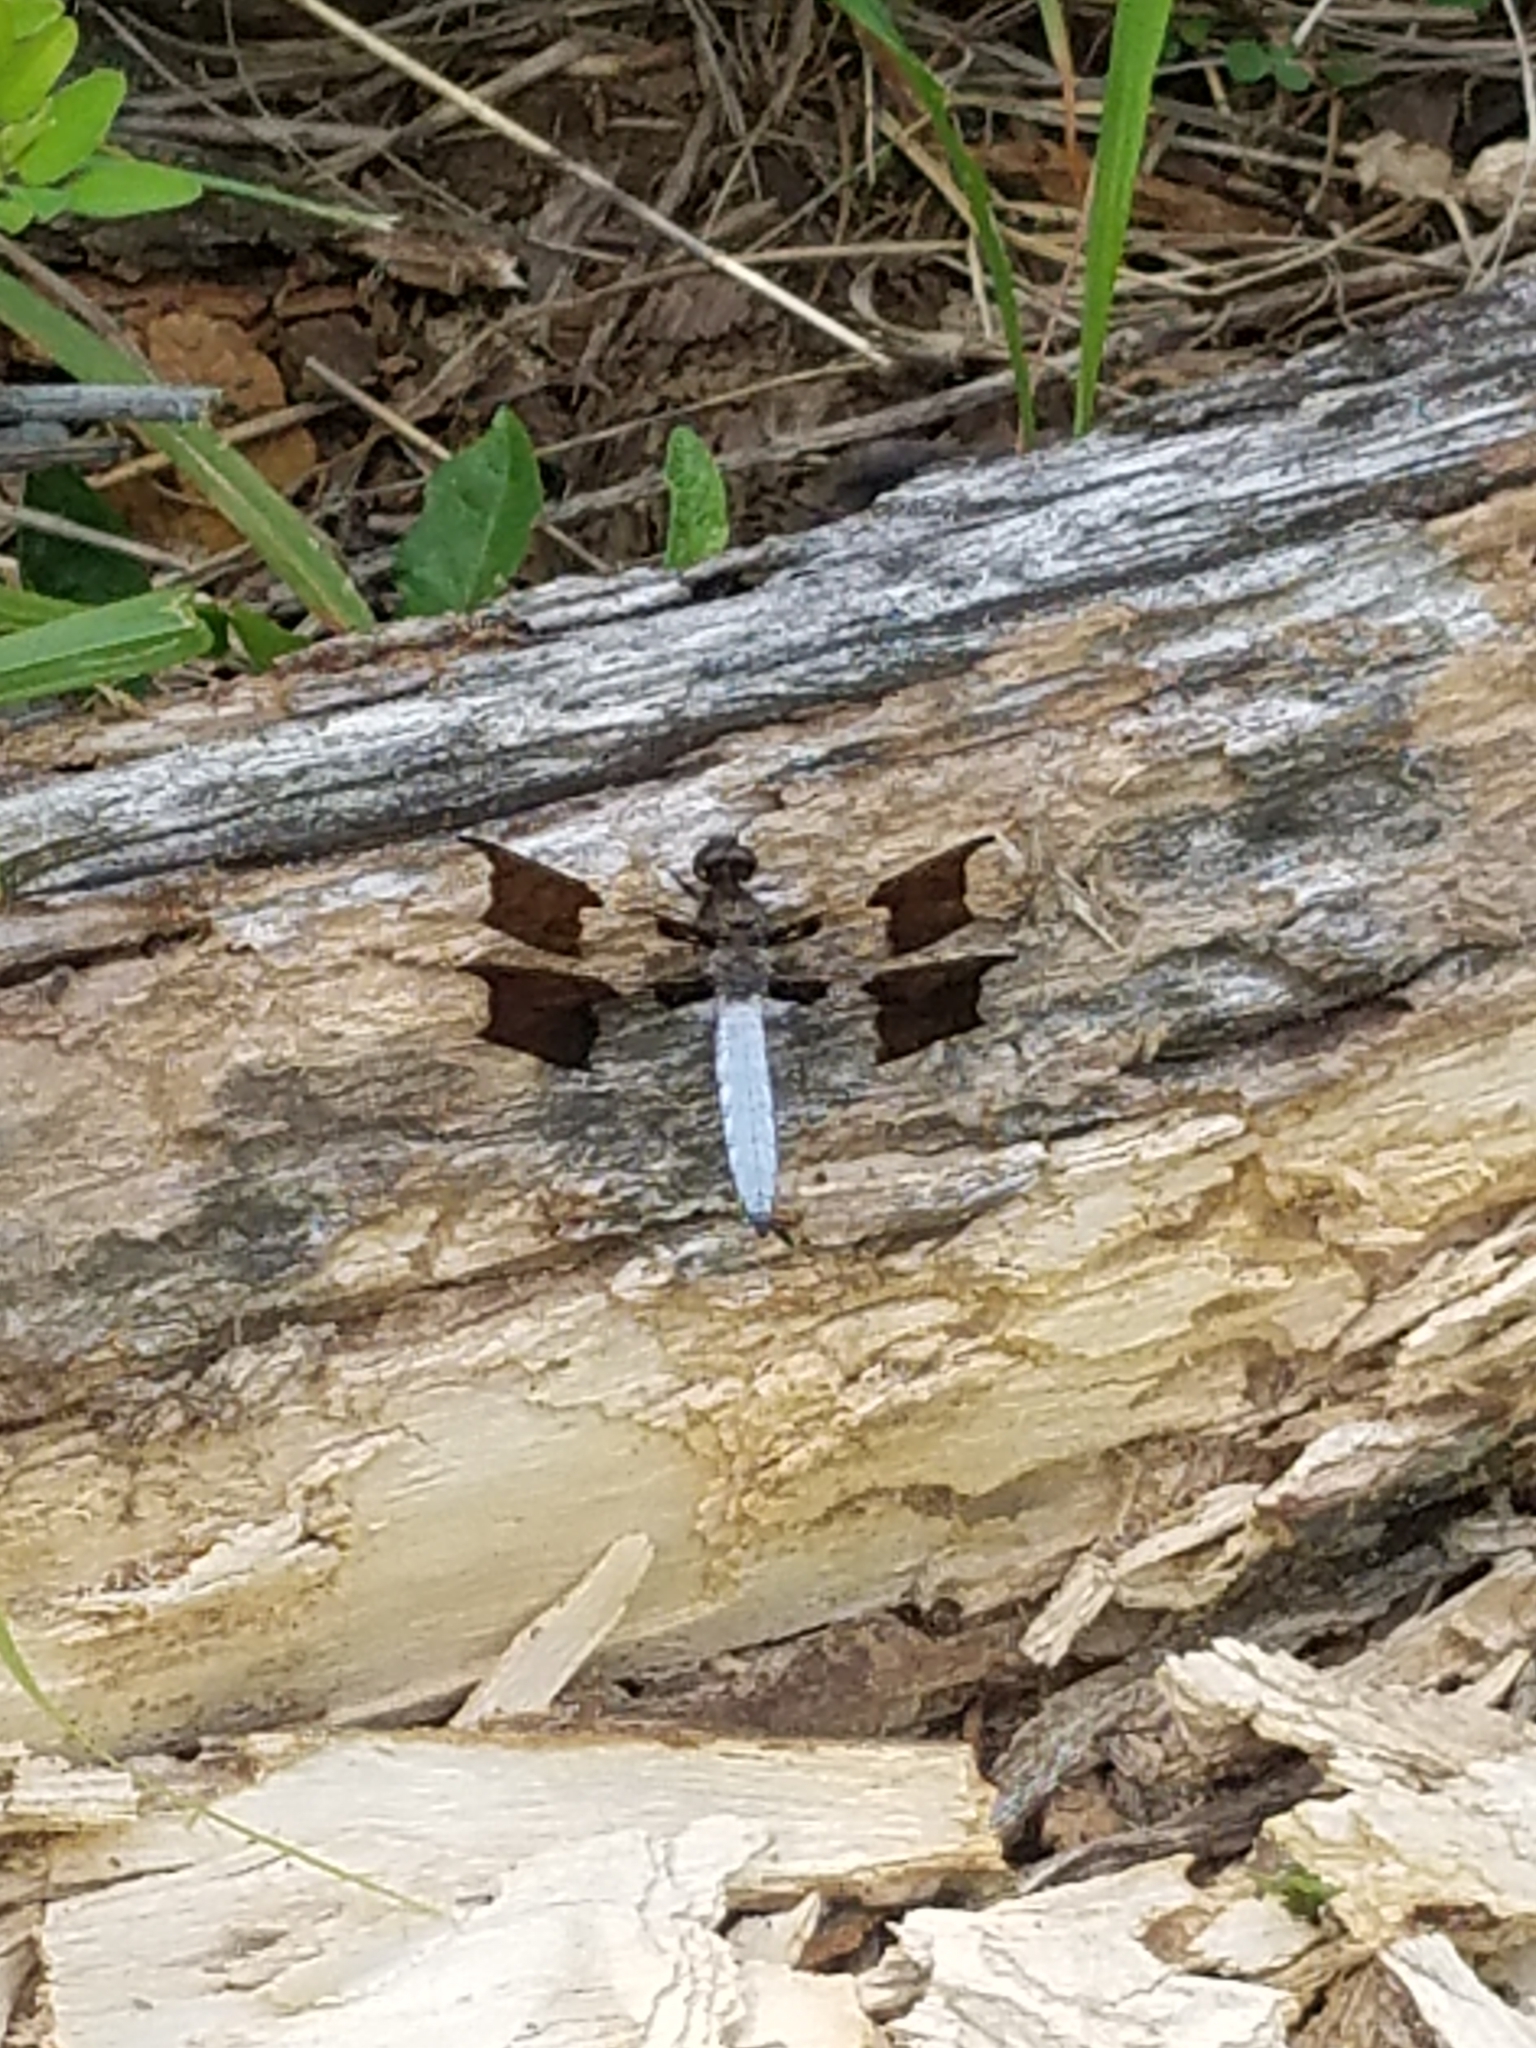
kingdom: Animalia
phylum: Arthropoda
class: Insecta
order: Odonata
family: Libellulidae
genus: Plathemis
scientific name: Plathemis lydia
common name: Common whitetail
